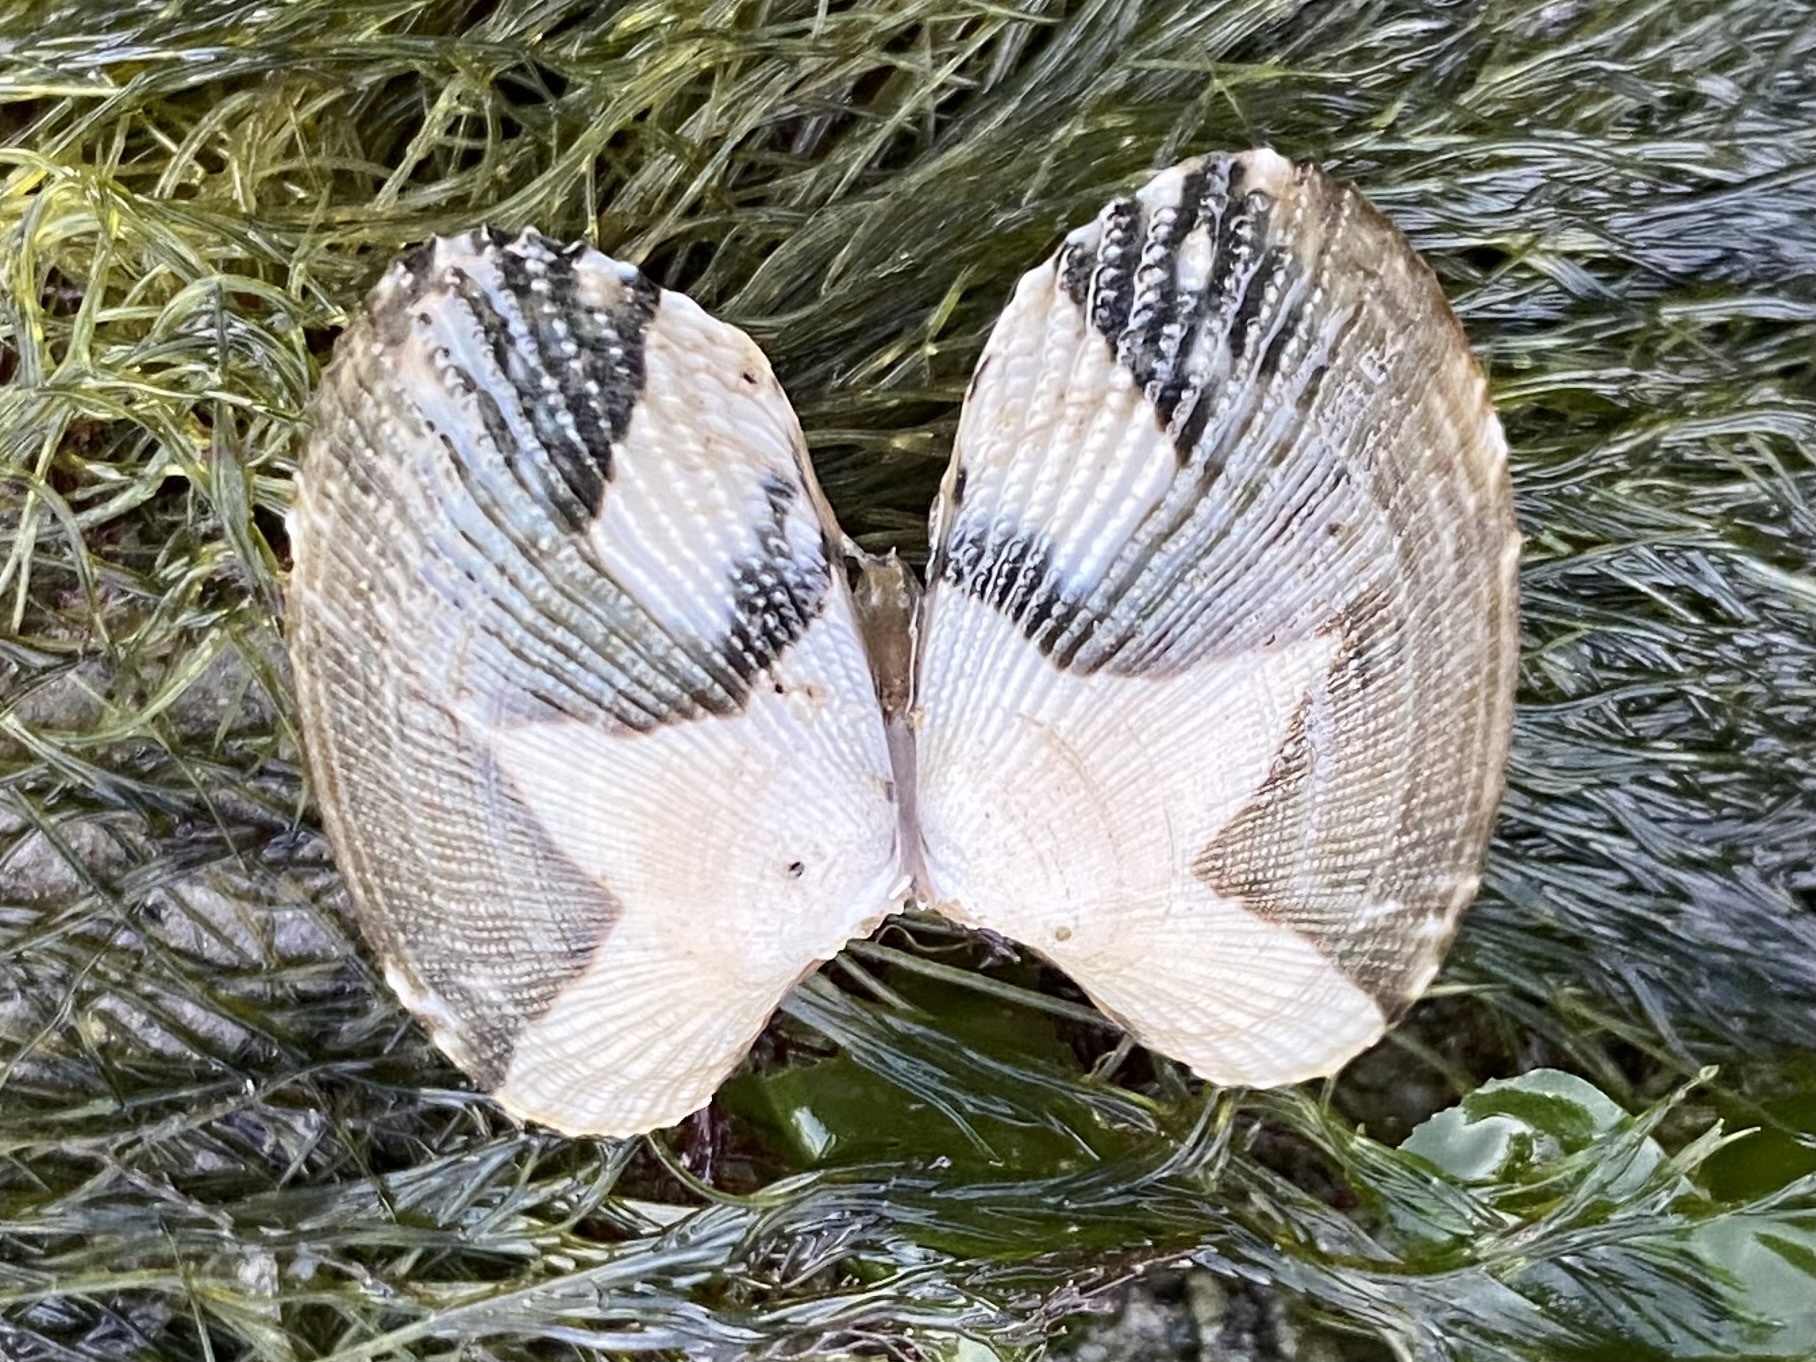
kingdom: Animalia
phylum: Mollusca
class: Bivalvia
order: Venerida
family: Veneridae
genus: Ruditapes
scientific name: Ruditapes philippinarum
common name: Manila clam
